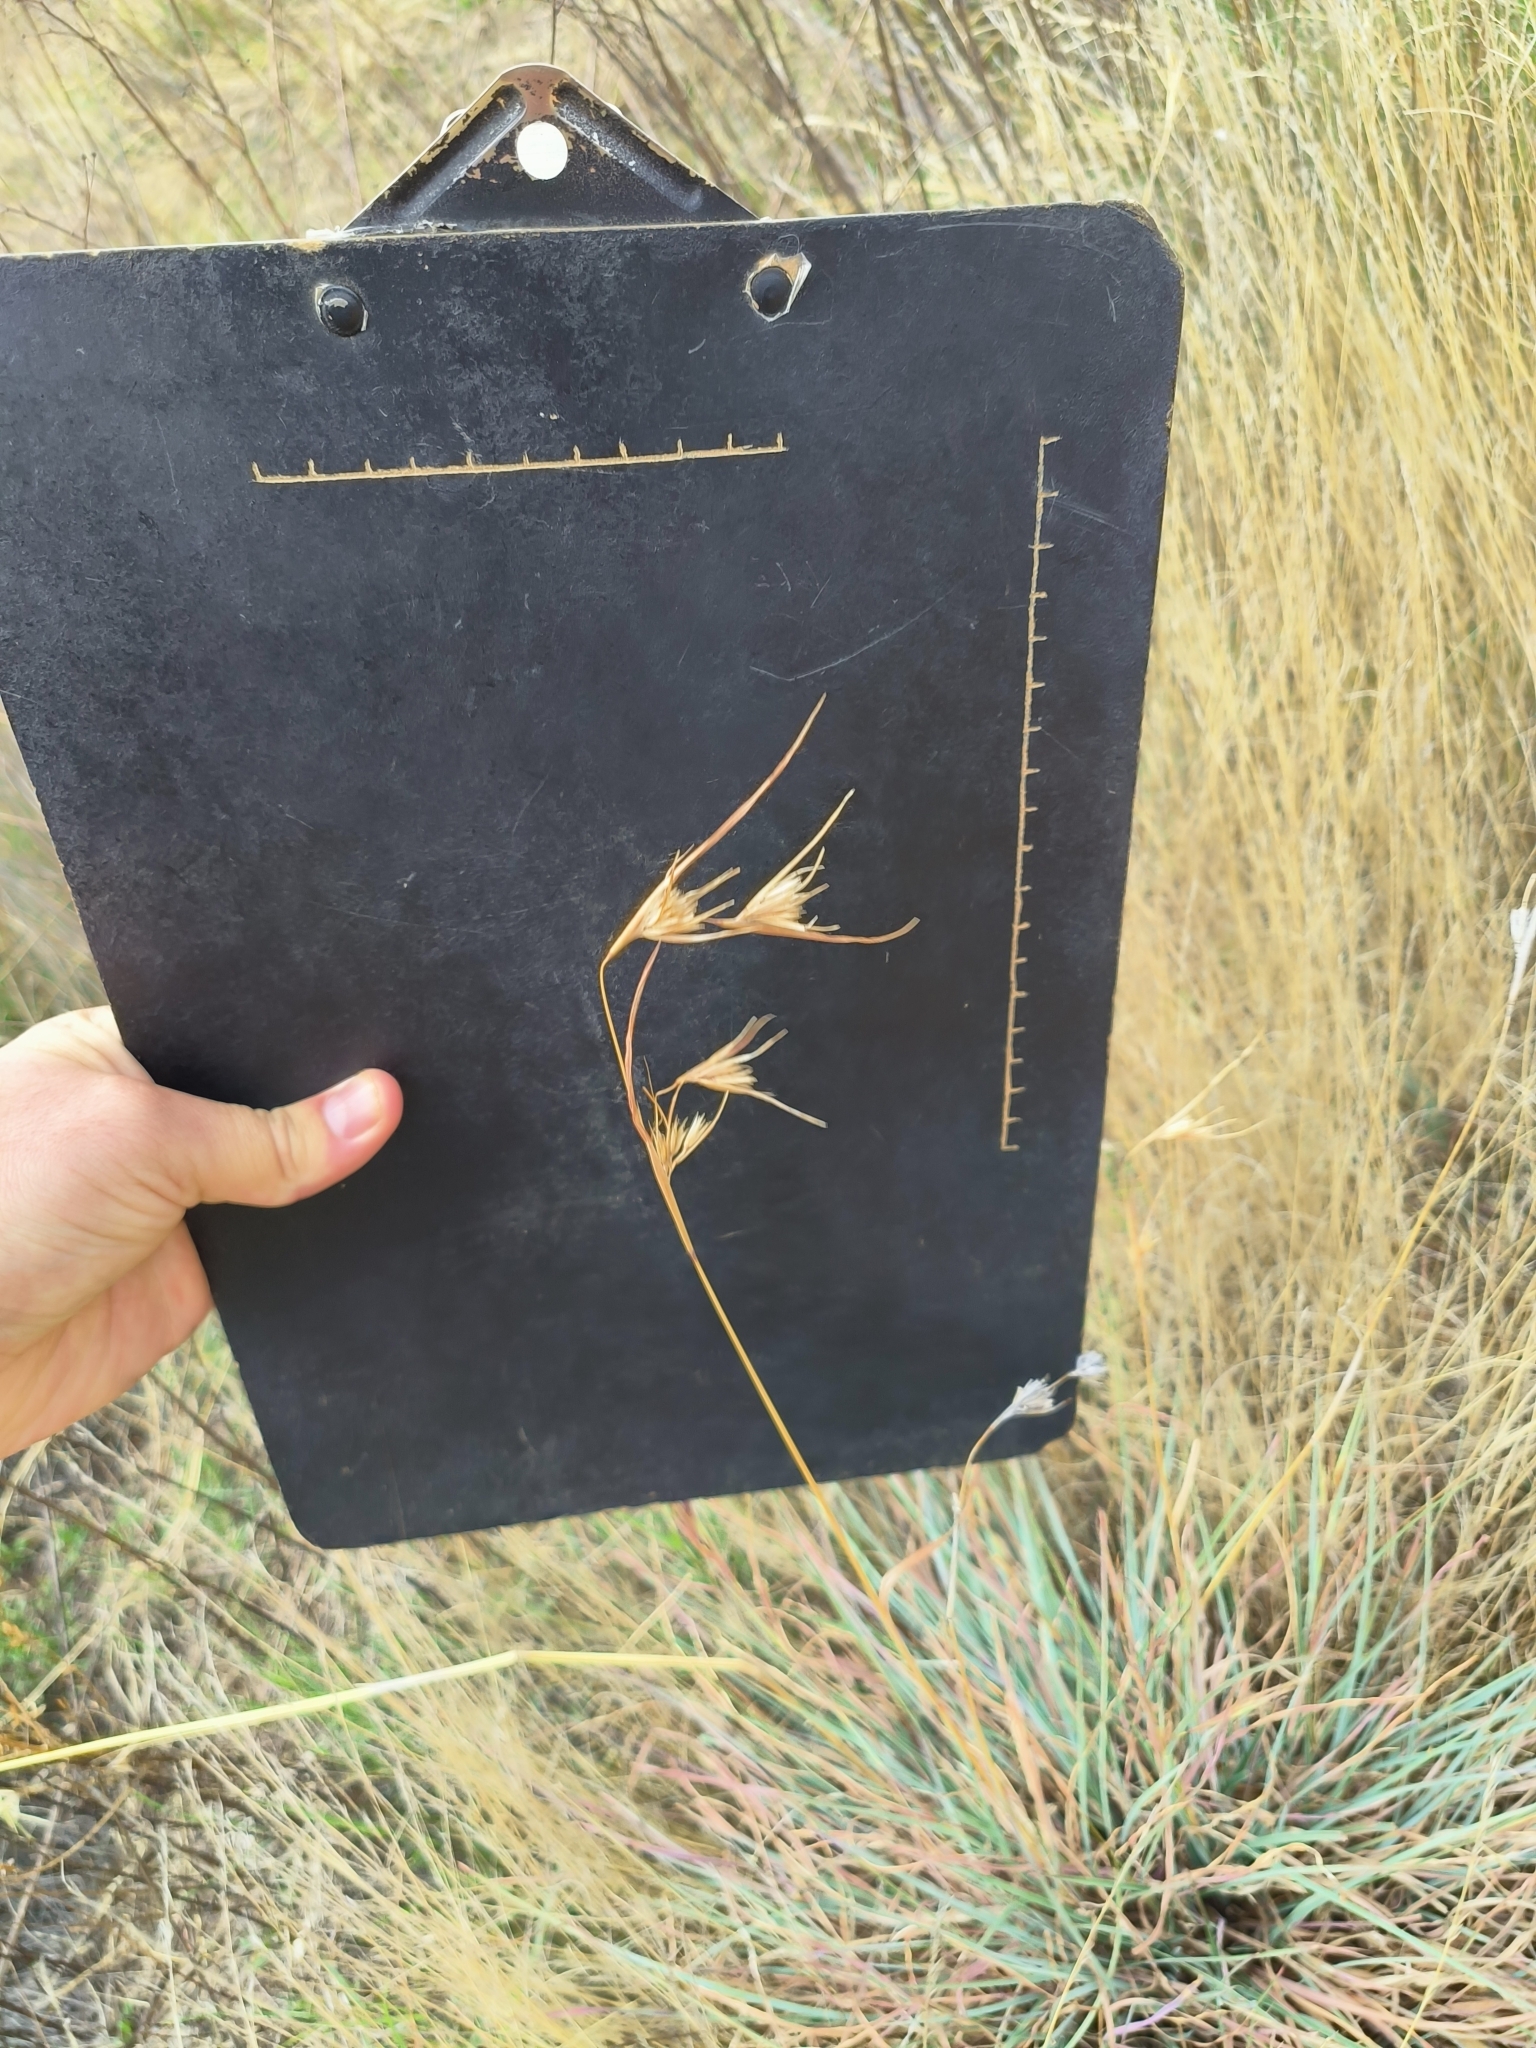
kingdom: Plantae
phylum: Tracheophyta
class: Liliopsida
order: Poales
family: Poaceae
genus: Themeda
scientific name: Themeda triandra
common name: Kangaroo grass
